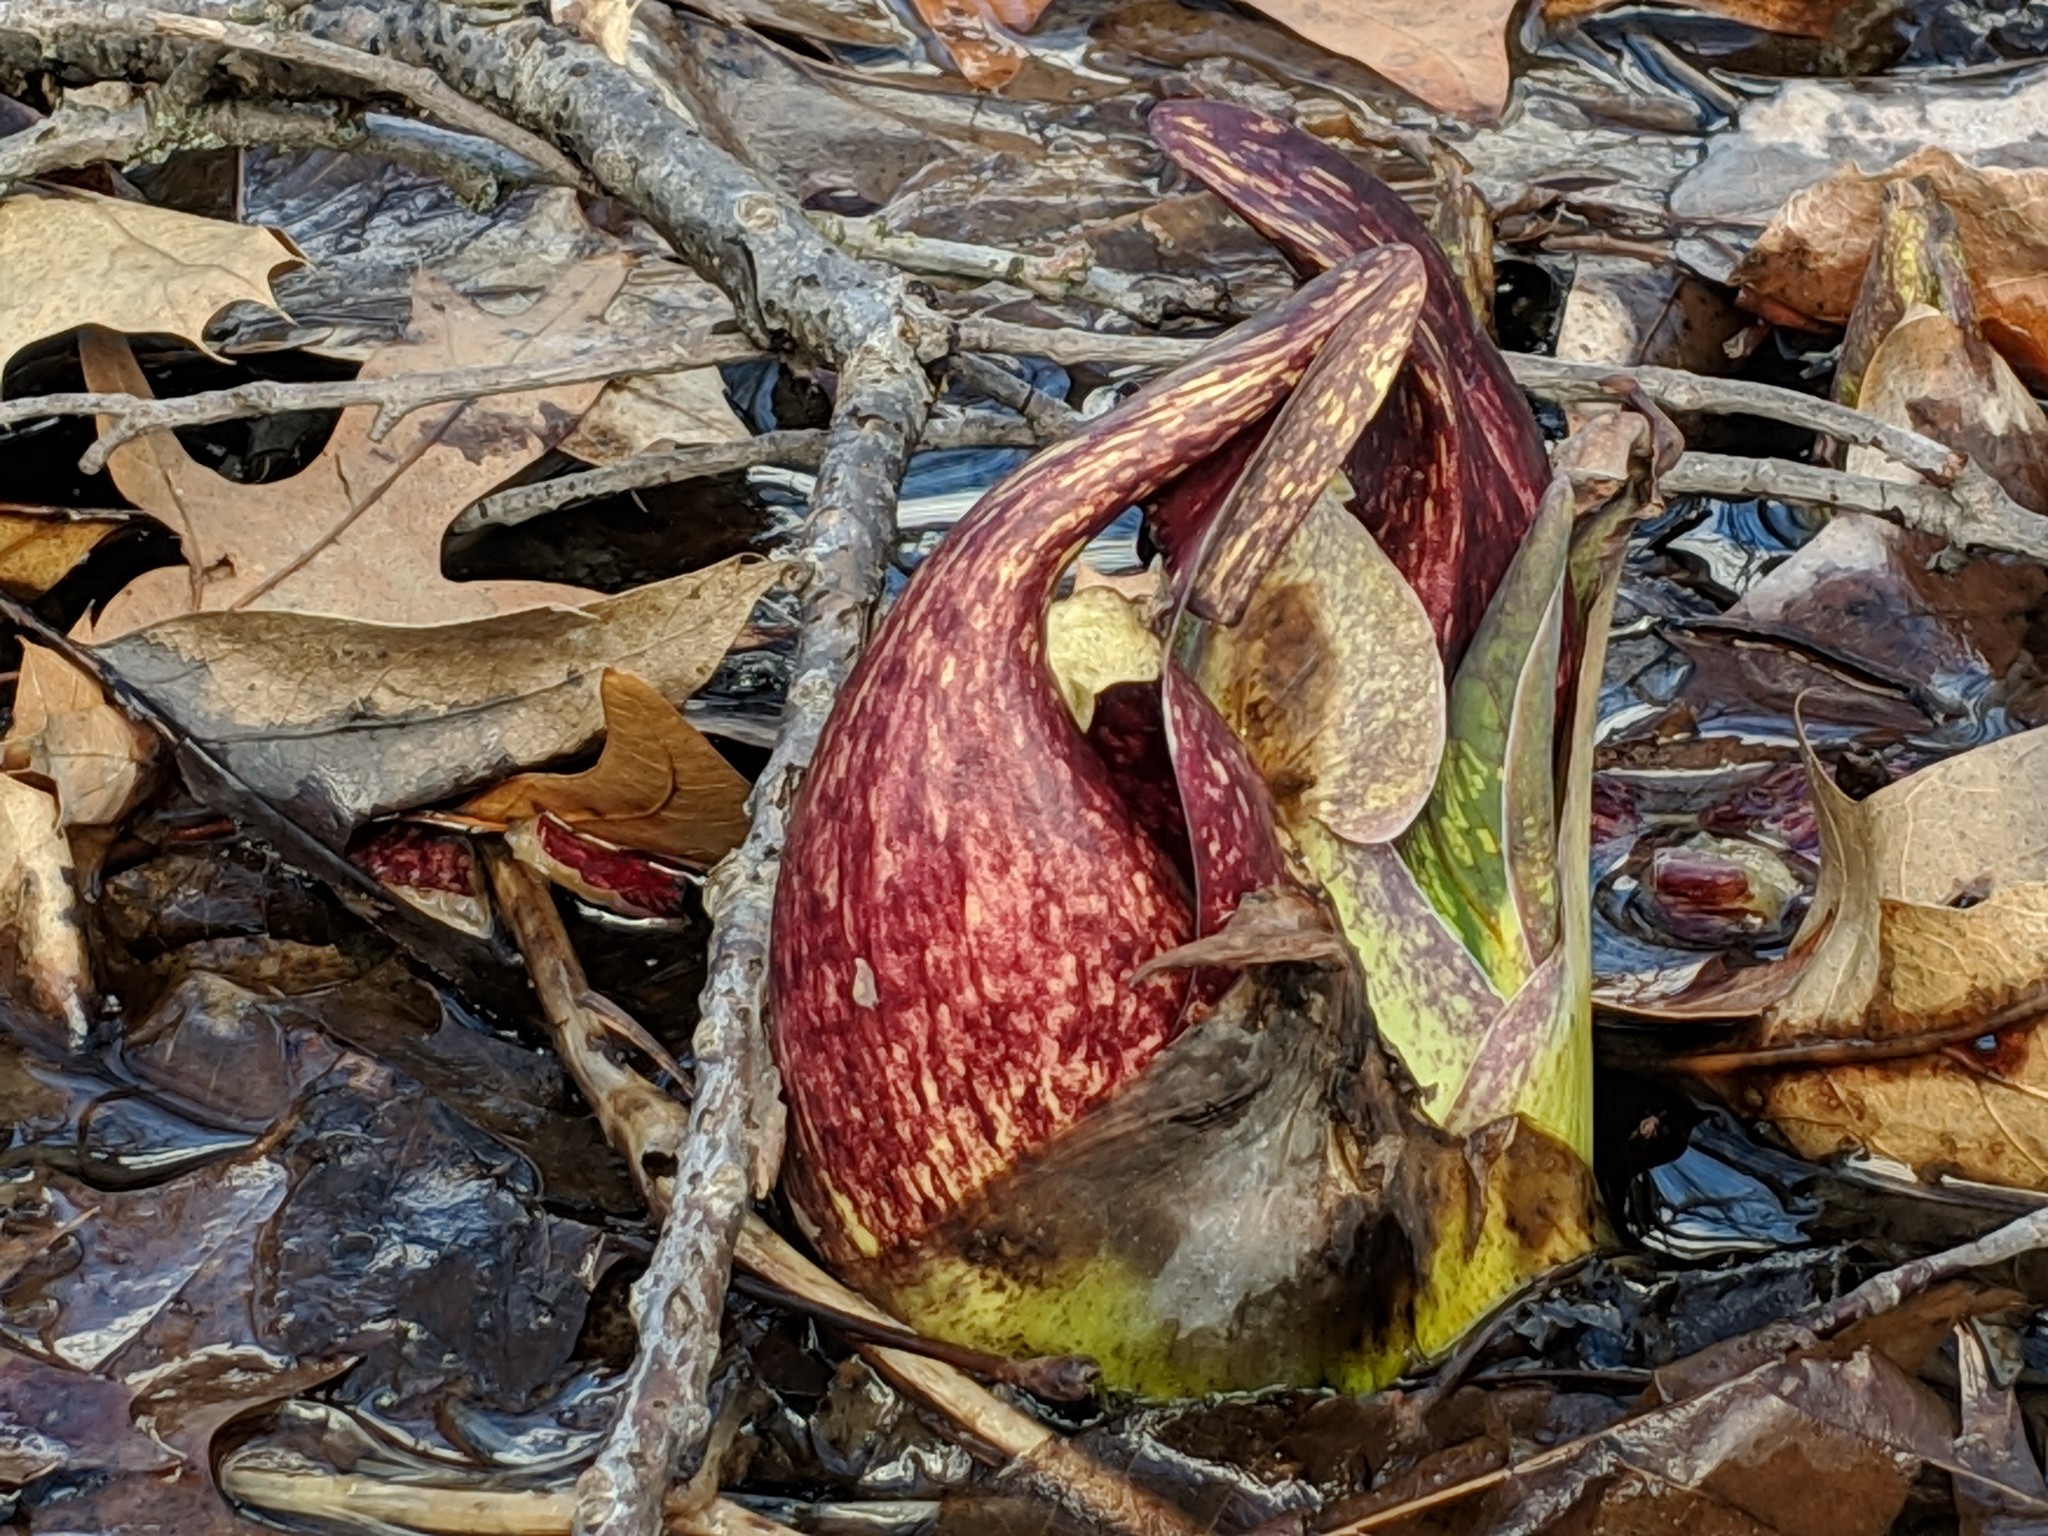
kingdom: Plantae
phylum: Tracheophyta
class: Liliopsida
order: Alismatales
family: Araceae
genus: Symplocarpus
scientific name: Symplocarpus foetidus
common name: Eastern skunk cabbage
